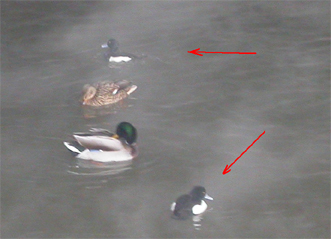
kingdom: Animalia
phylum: Chordata
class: Aves
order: Anseriformes
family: Anatidae
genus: Aythya
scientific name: Aythya fuligula
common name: Tufted duck
